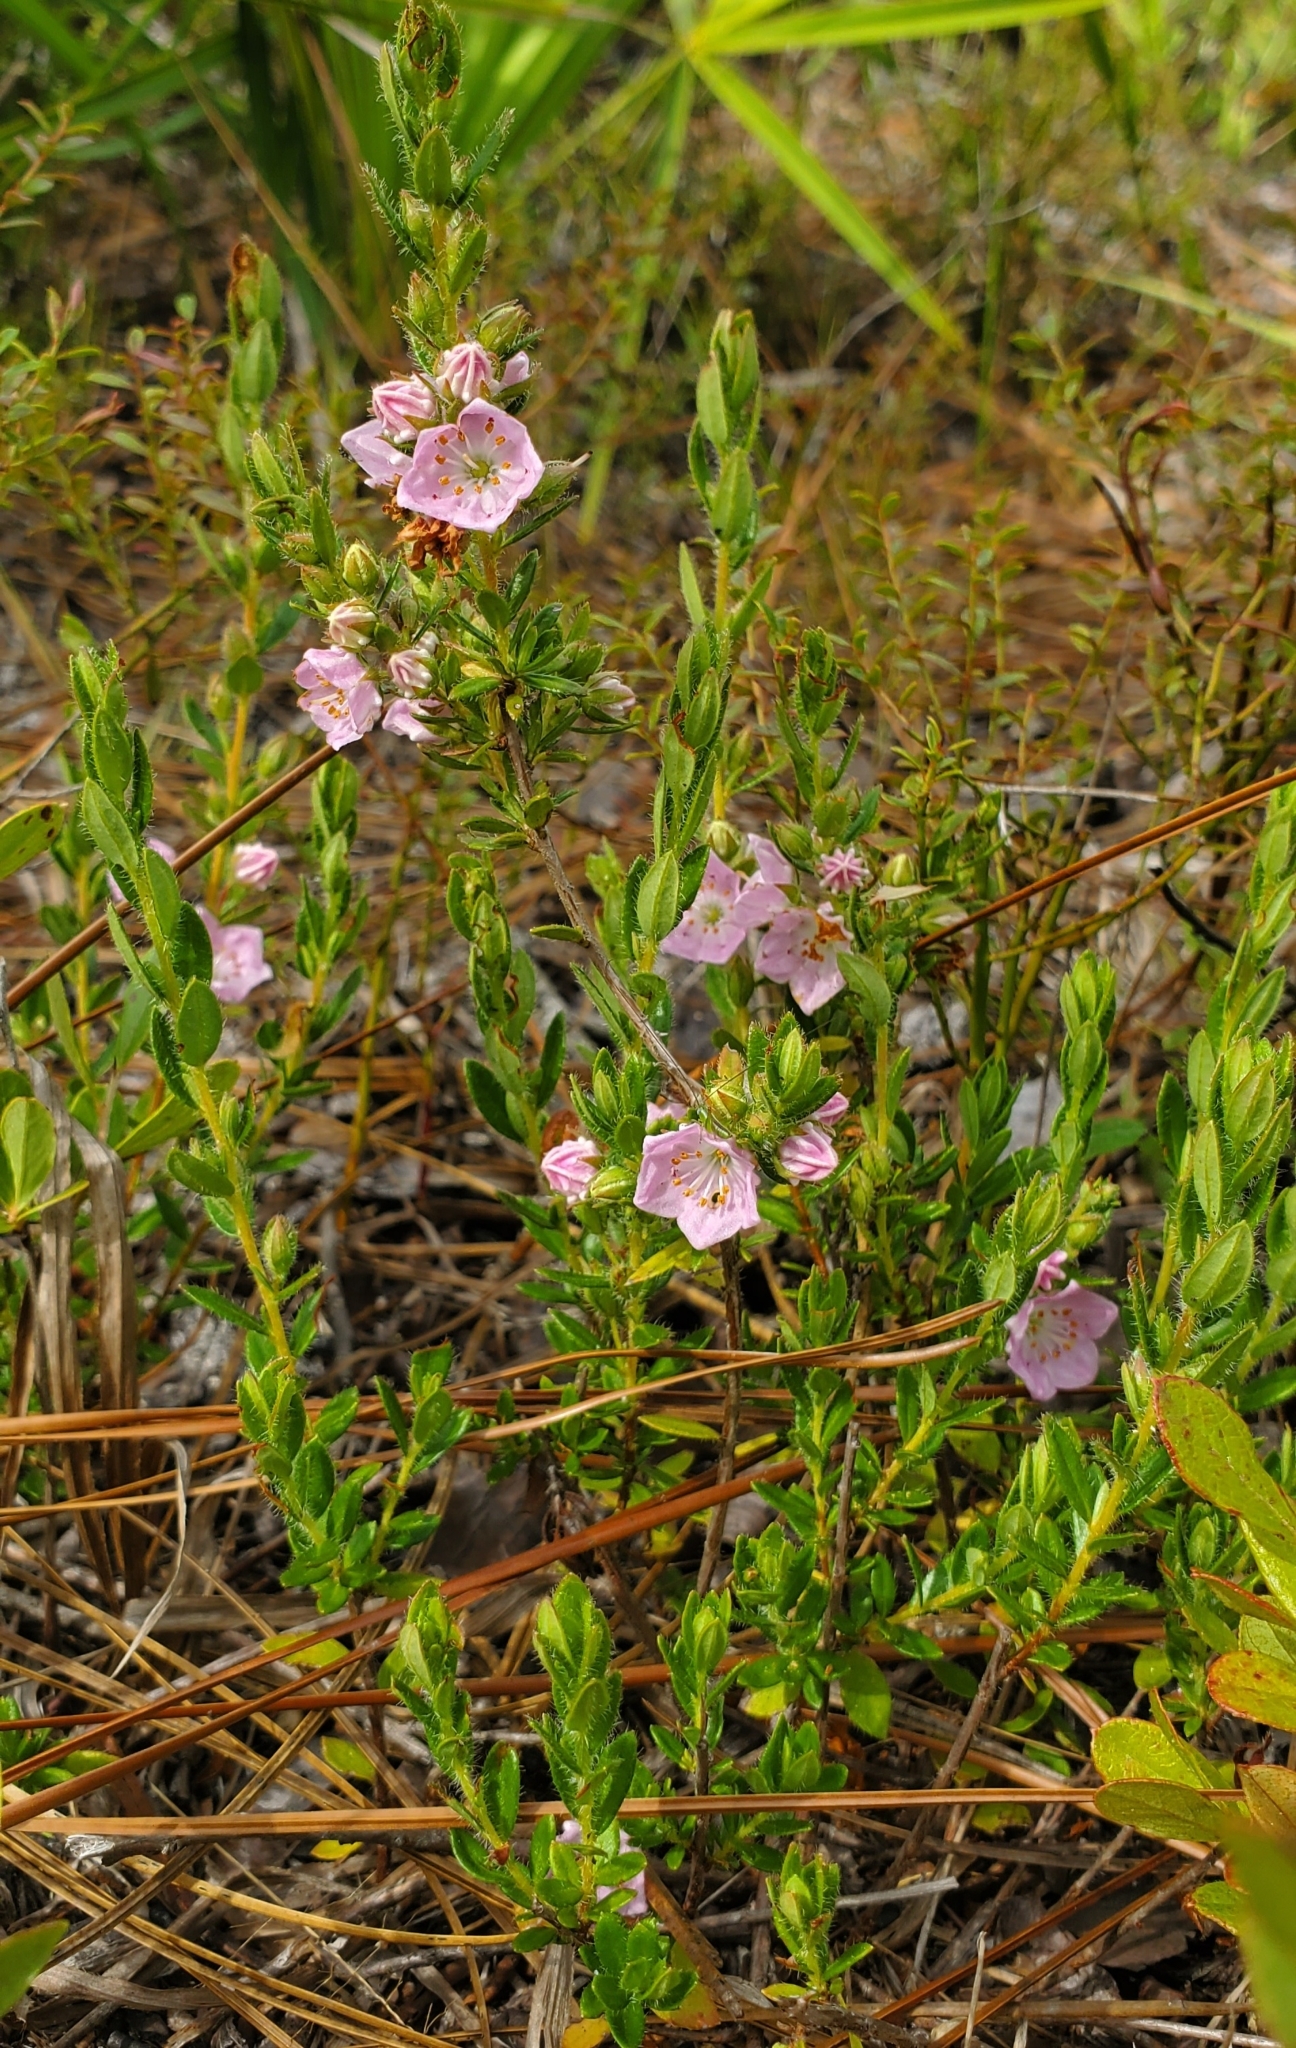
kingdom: Plantae
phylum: Tracheophyta
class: Magnoliopsida
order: Ericales
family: Ericaceae
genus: Kalmia
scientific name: Kalmia hirsuta
